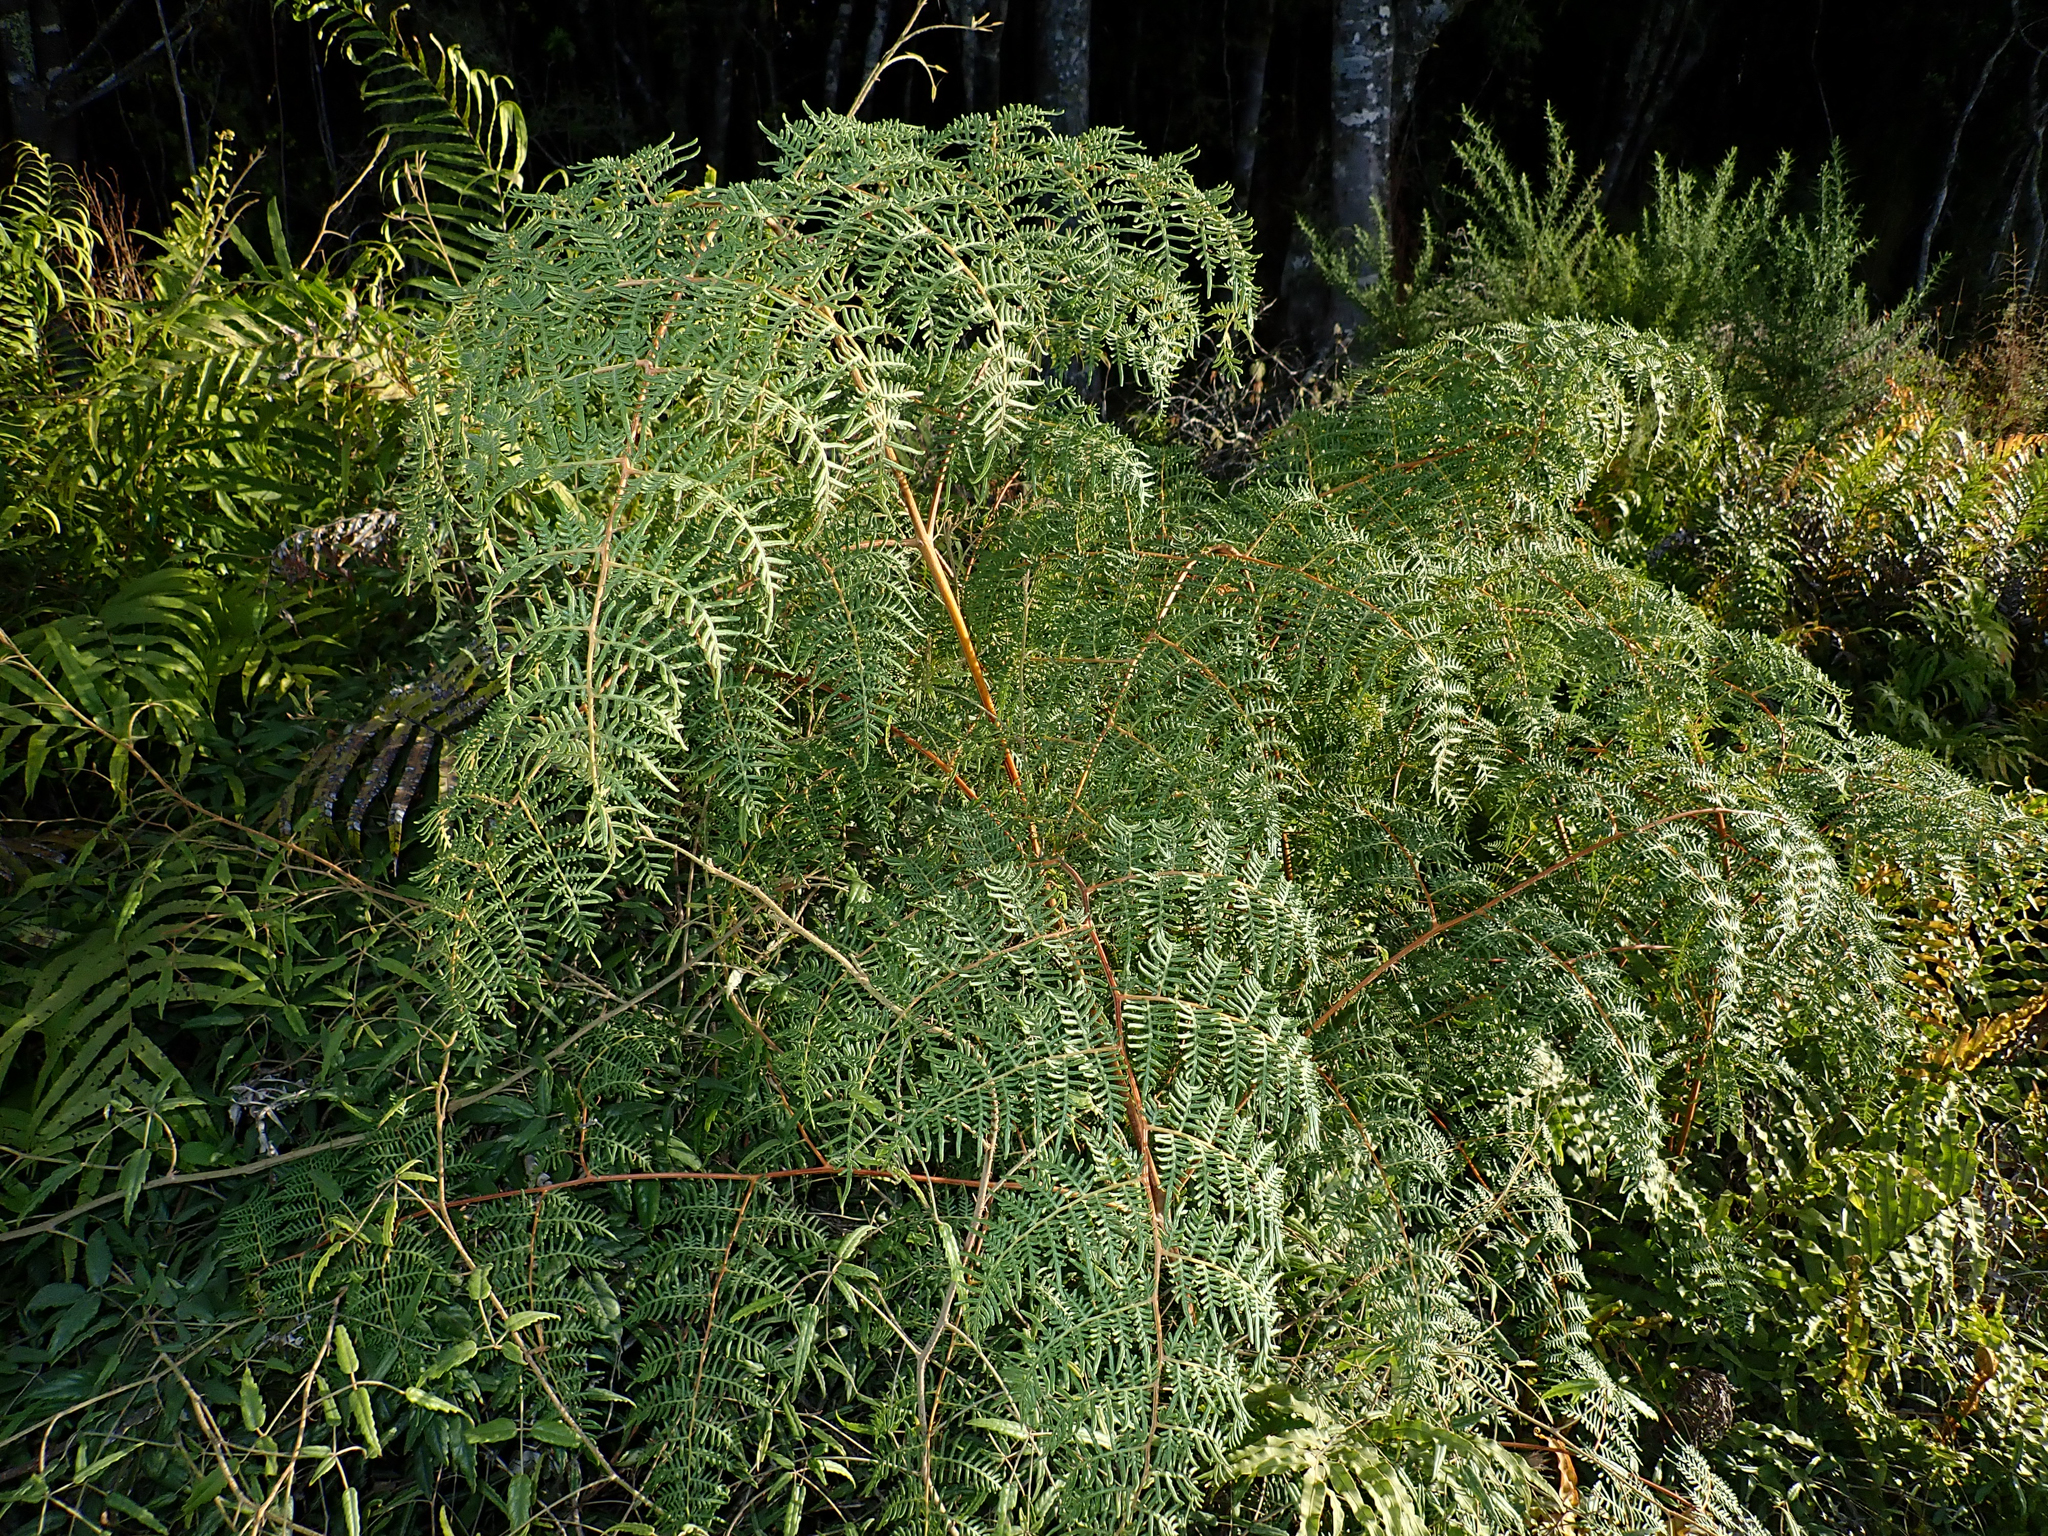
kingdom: Plantae
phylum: Tracheophyta
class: Polypodiopsida
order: Polypodiales
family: Dennstaedtiaceae
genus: Pteridium
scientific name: Pteridium esculentum
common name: Bracken fern
